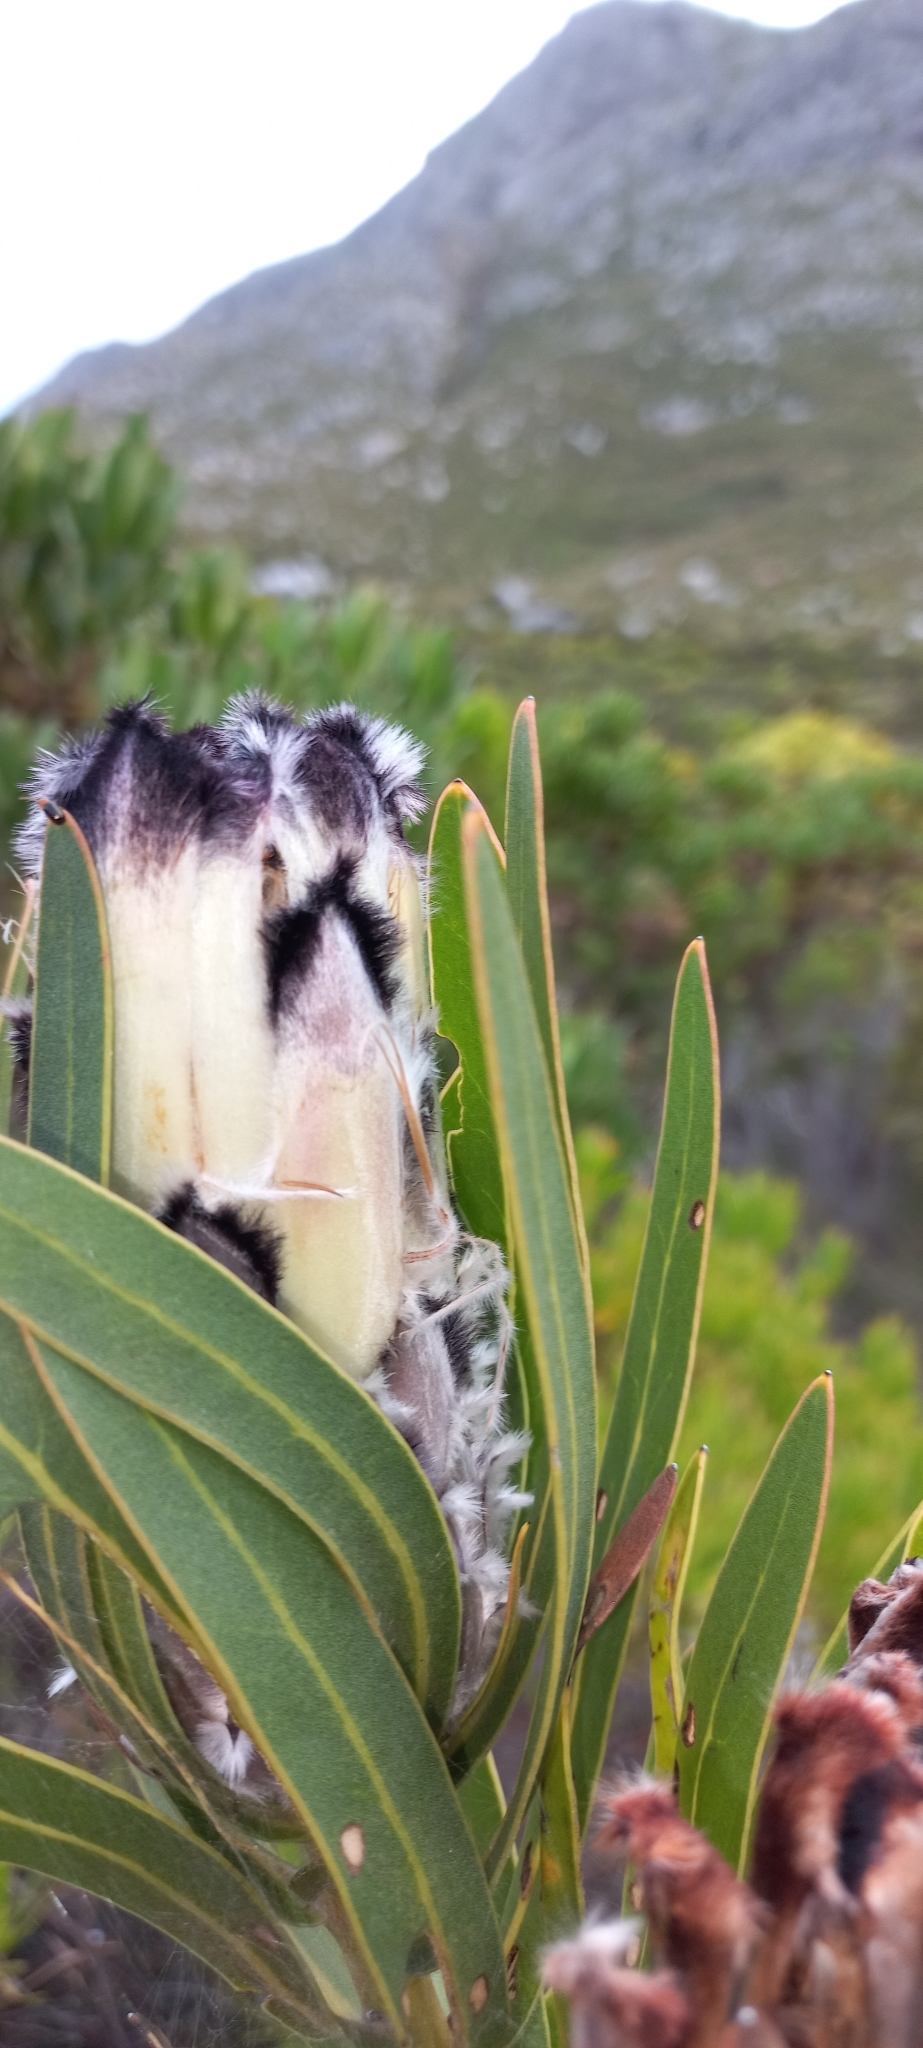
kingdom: Plantae
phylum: Tracheophyta
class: Magnoliopsida
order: Proteales
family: Proteaceae
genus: Protea
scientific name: Protea lepidocarpodendron
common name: Black-bearded protea
